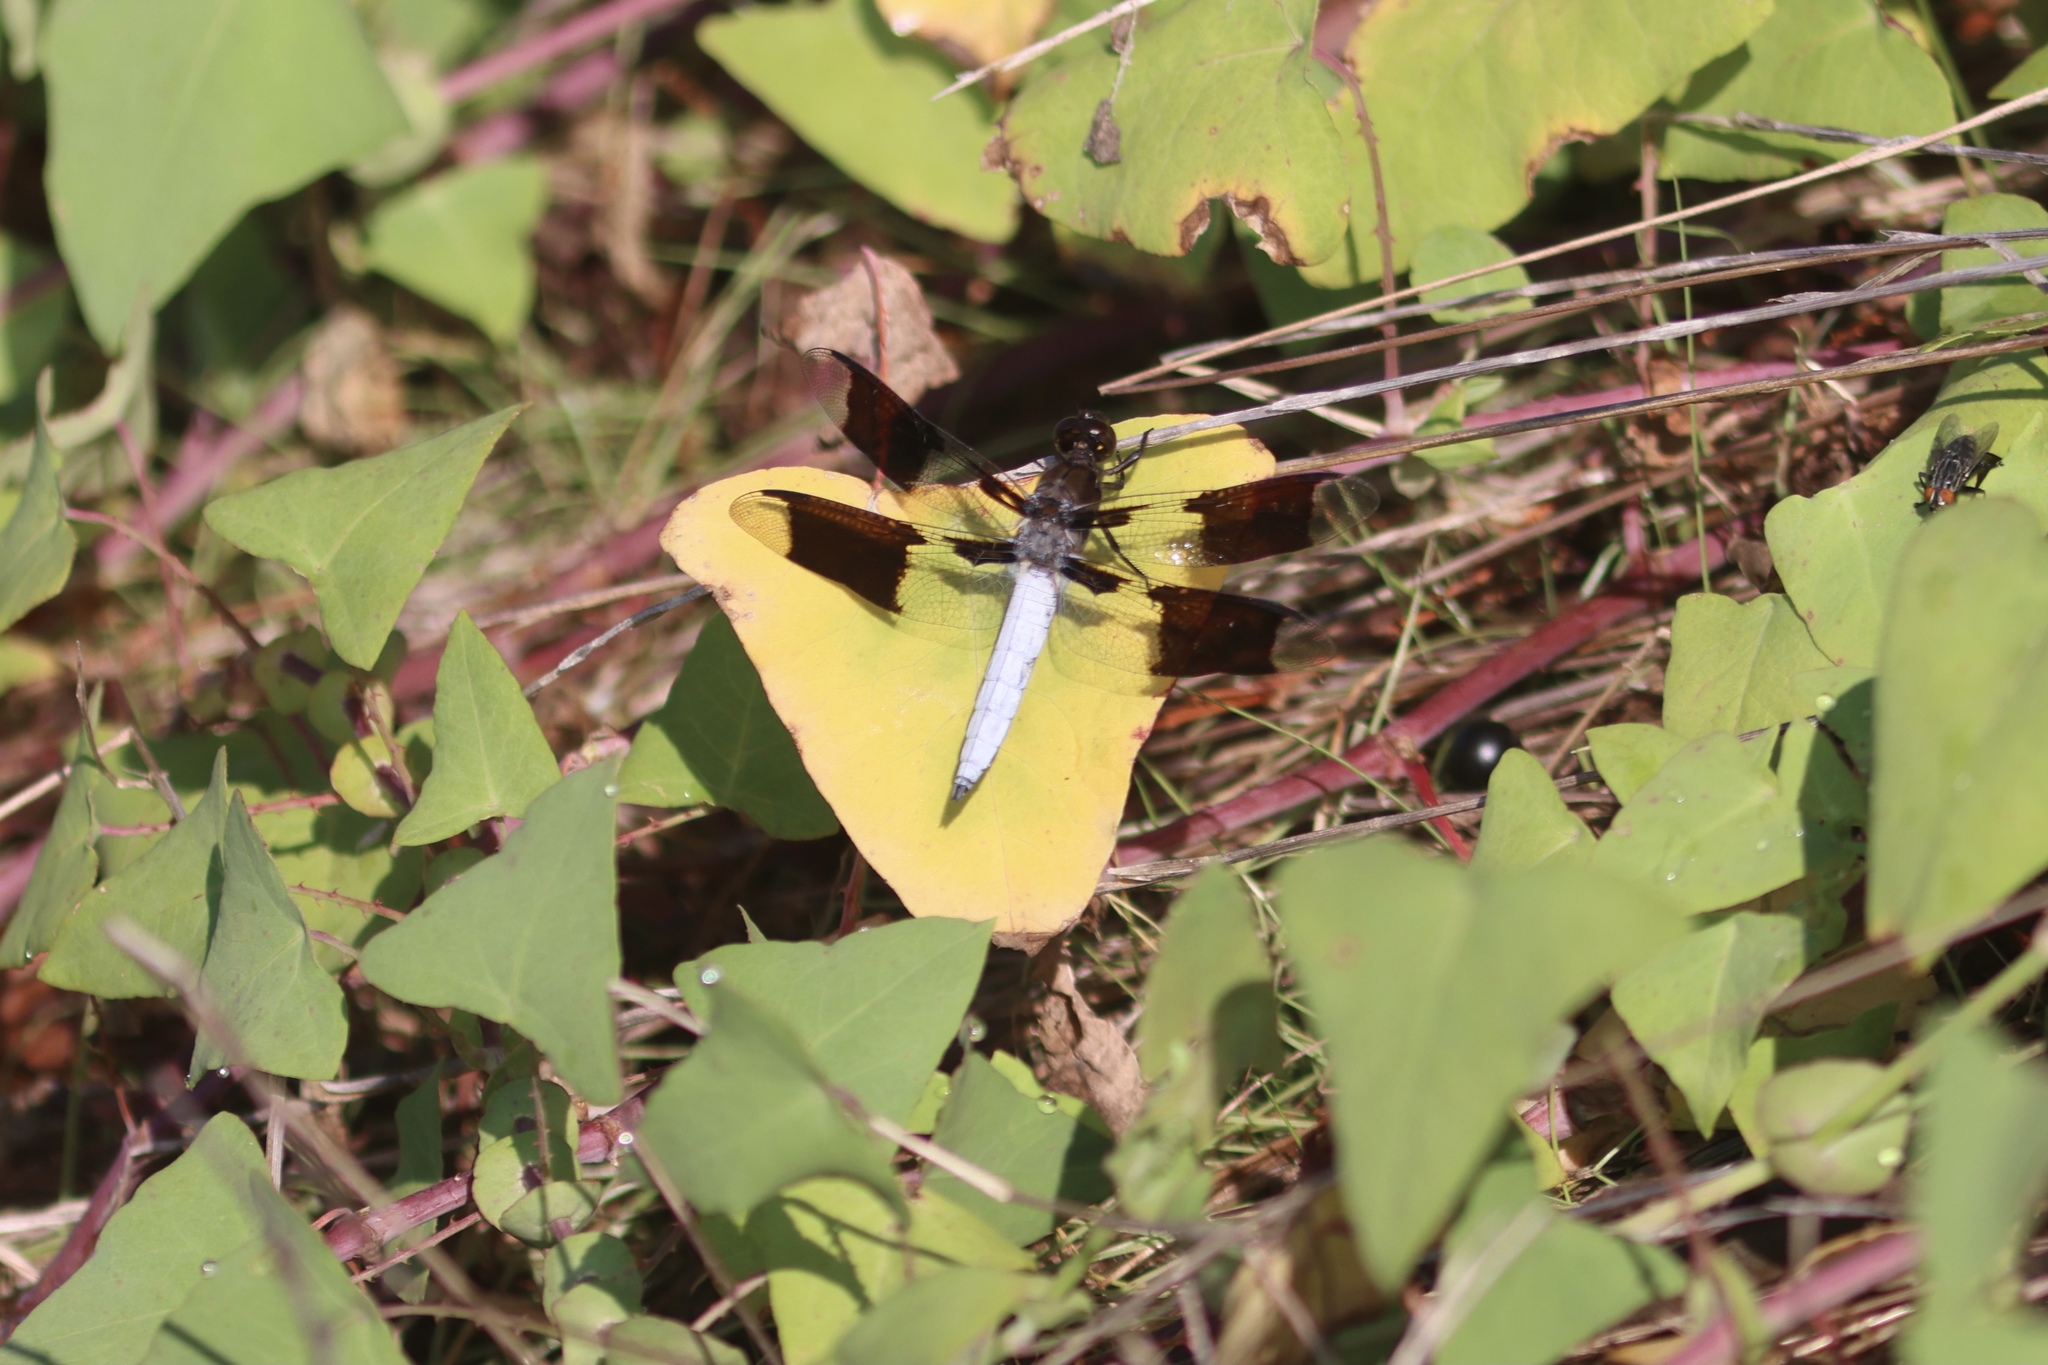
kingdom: Animalia
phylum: Arthropoda
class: Insecta
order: Odonata
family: Libellulidae
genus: Plathemis
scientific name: Plathemis lydia
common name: Common whitetail
